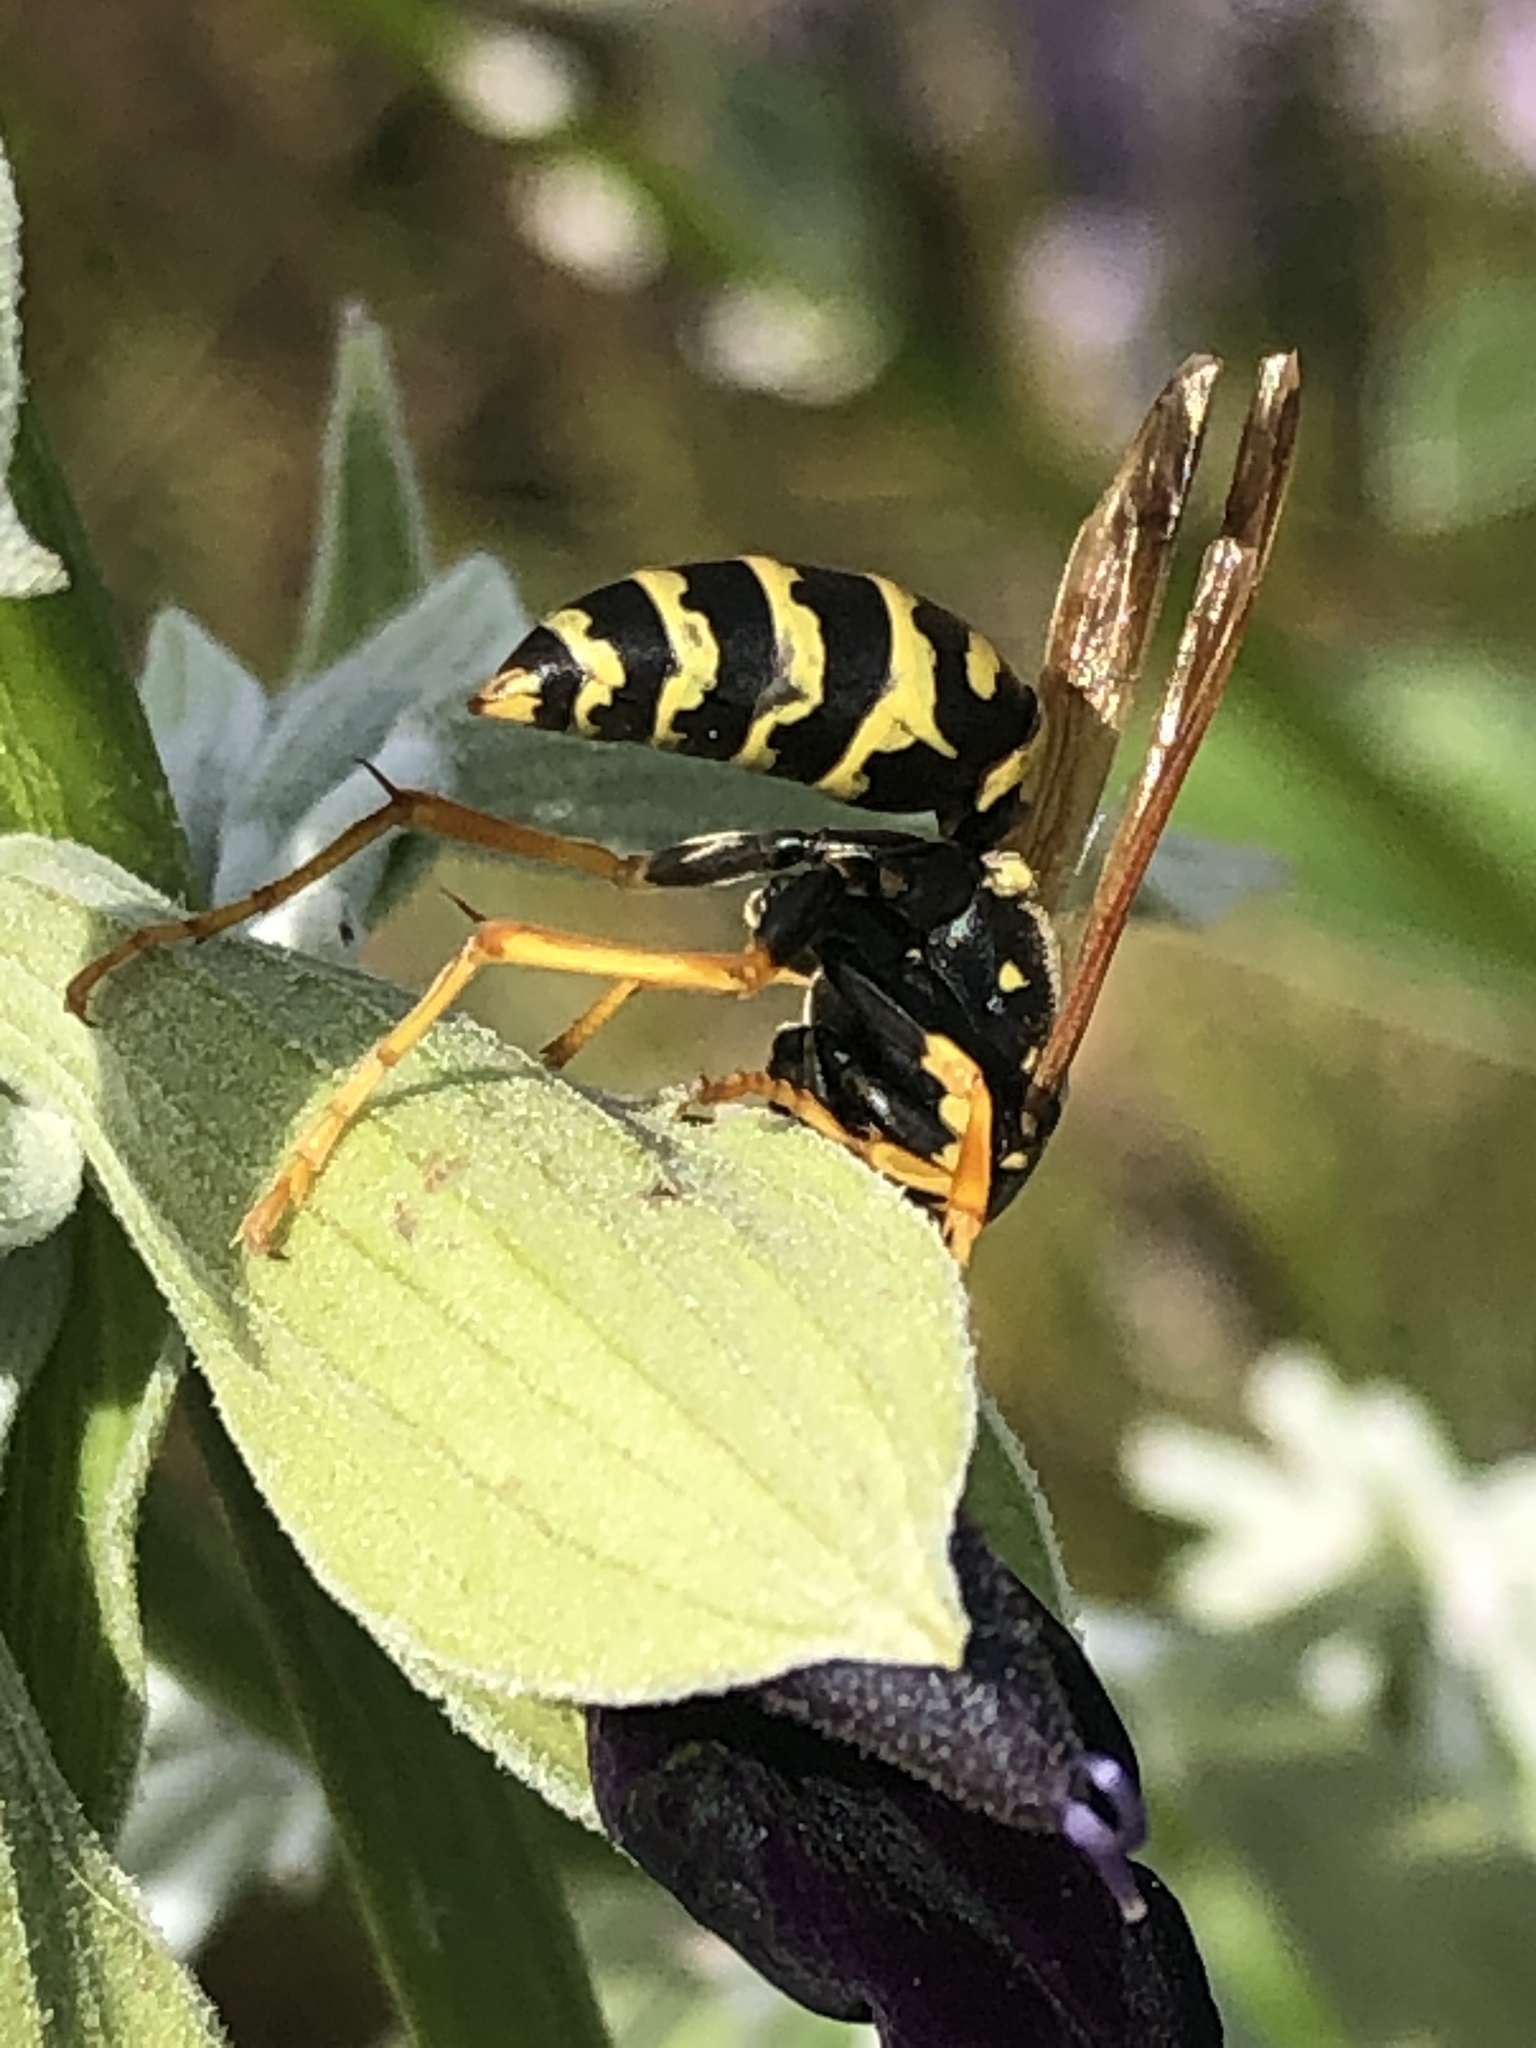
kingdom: Animalia
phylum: Arthropoda
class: Insecta
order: Hymenoptera
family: Eumenidae
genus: Polistes
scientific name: Polistes dominula
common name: Paper wasp
